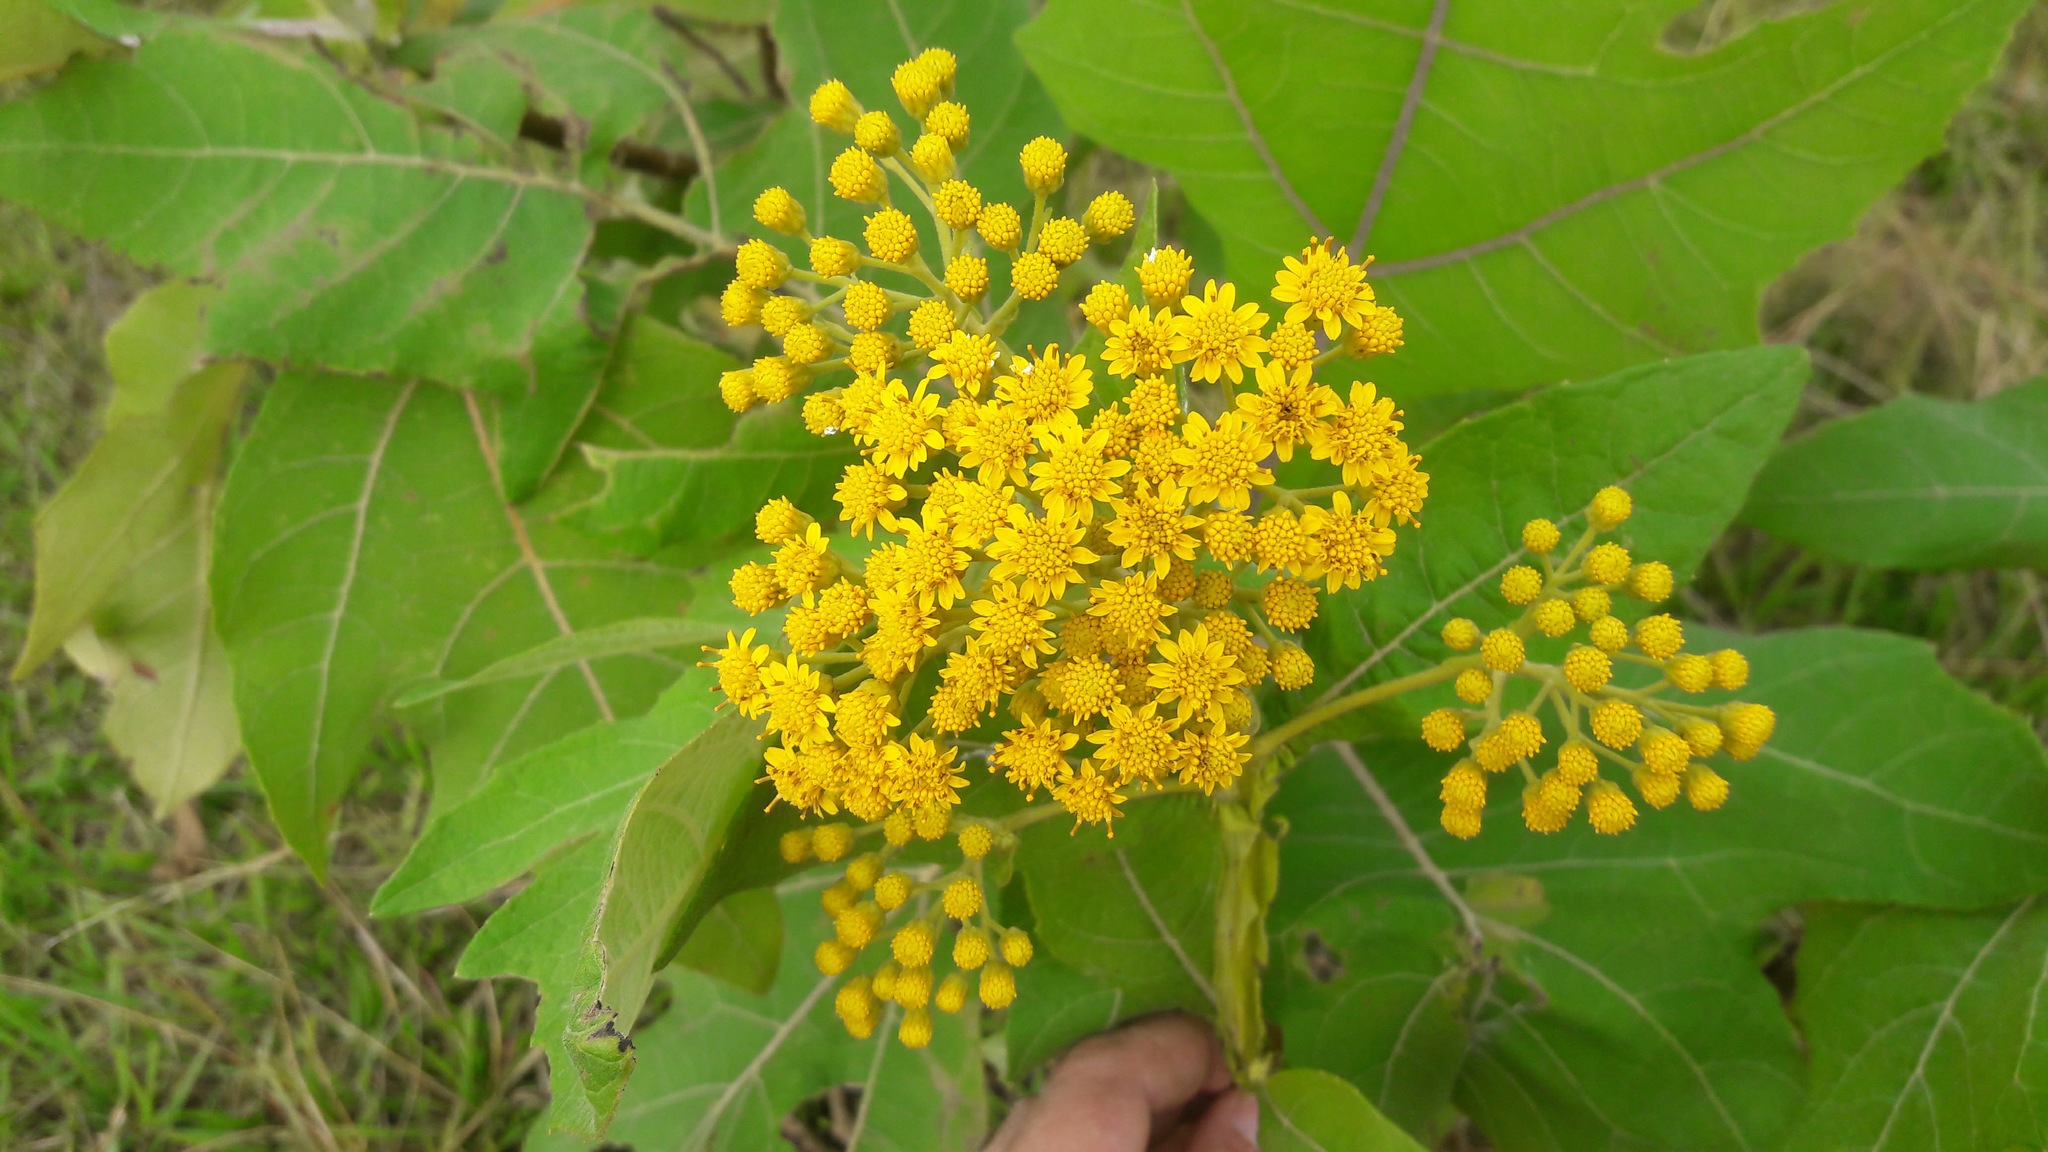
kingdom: Plantae
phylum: Tracheophyta
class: Magnoliopsida
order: Asterales
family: Asteraceae
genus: Verbesina
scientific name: Verbesina fastigiata
